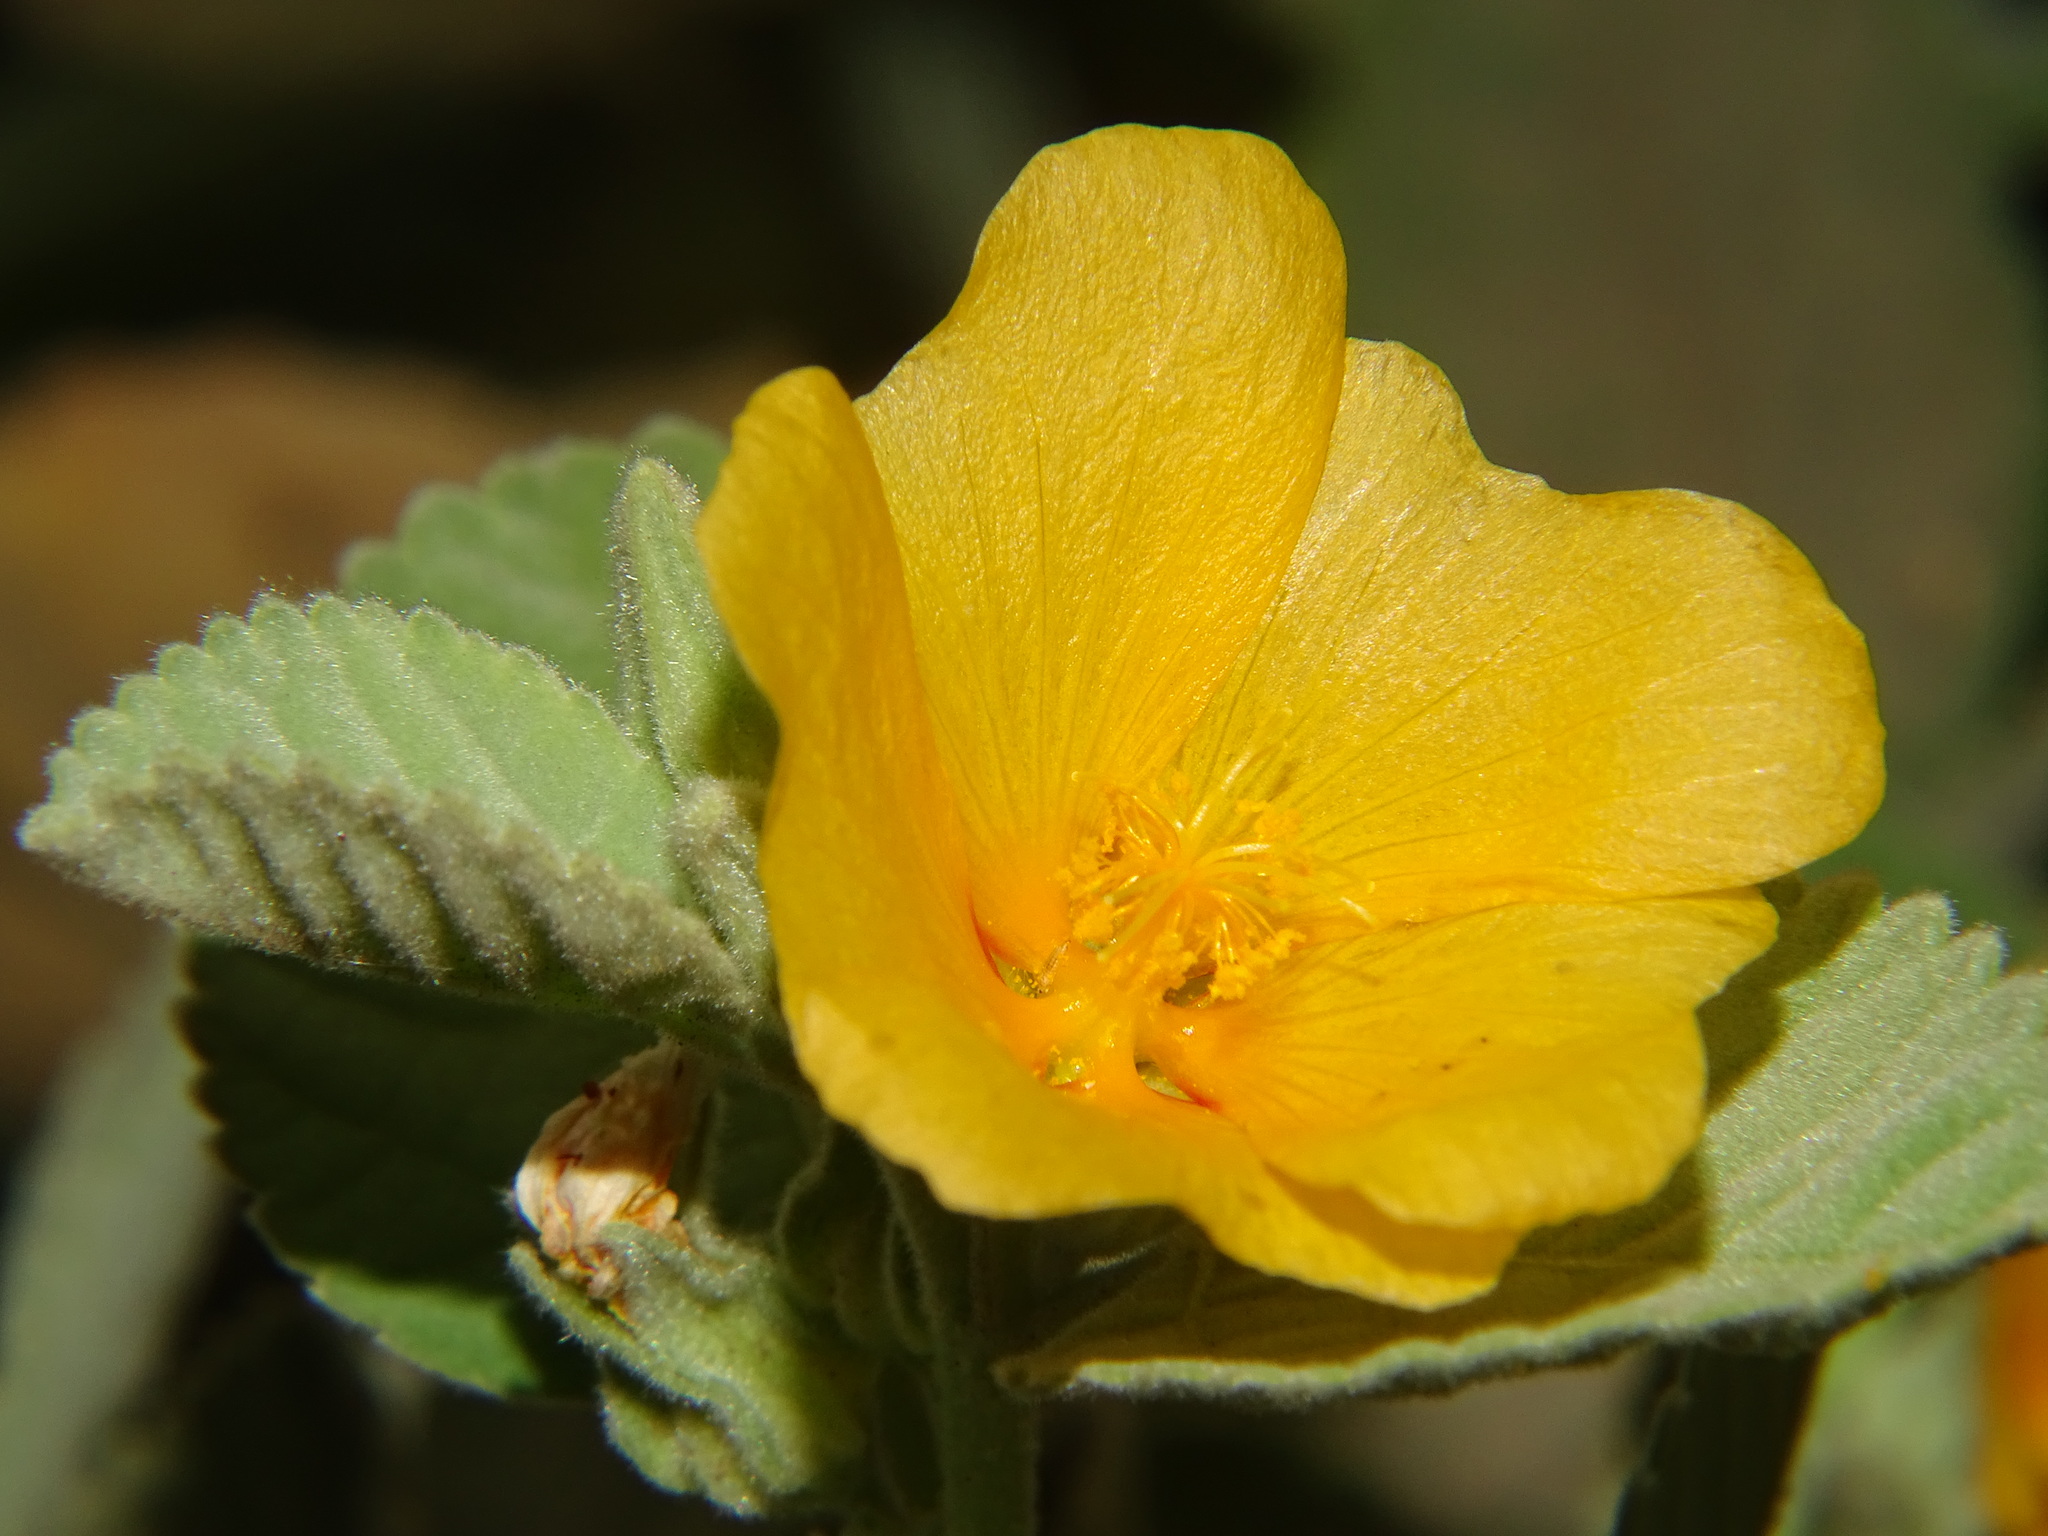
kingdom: Plantae
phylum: Tracheophyta
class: Magnoliopsida
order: Malvales
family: Malvaceae
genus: Sida
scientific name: Sida fallax
